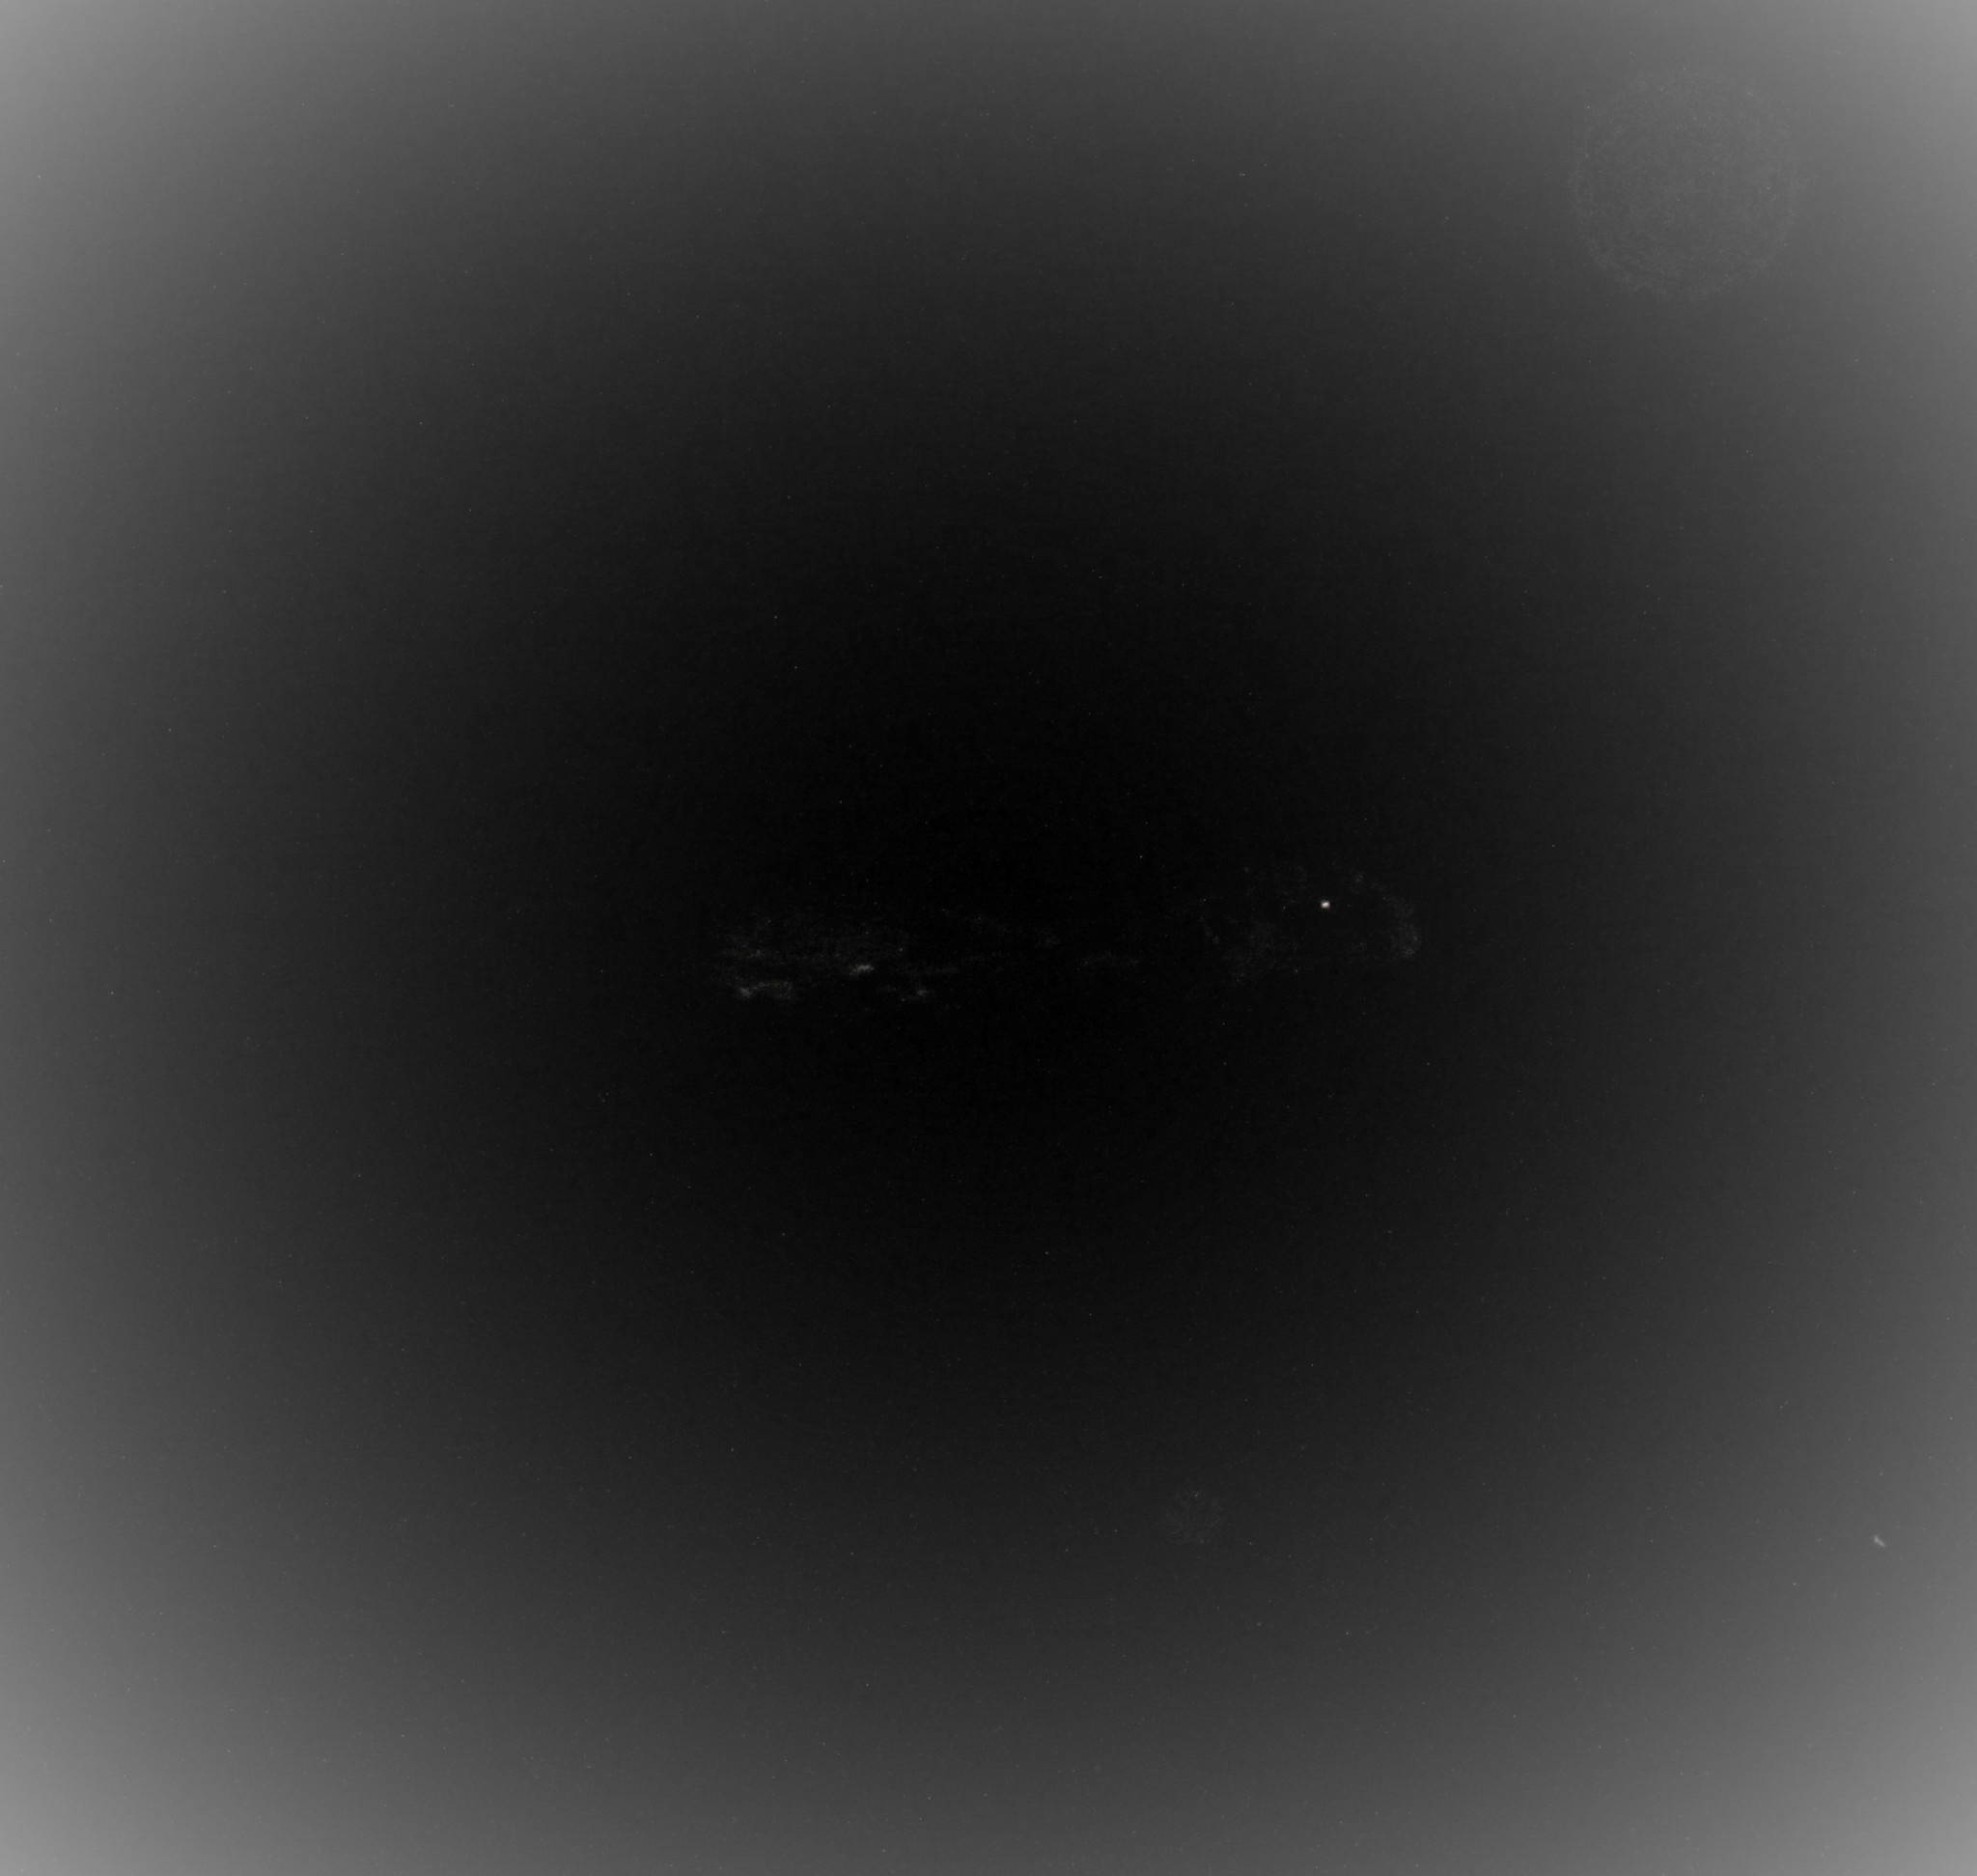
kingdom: Animalia
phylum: Chordata
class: Mammalia
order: Rodentia
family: Castoridae
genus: Castor
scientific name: Castor canadensis
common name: American beaver
